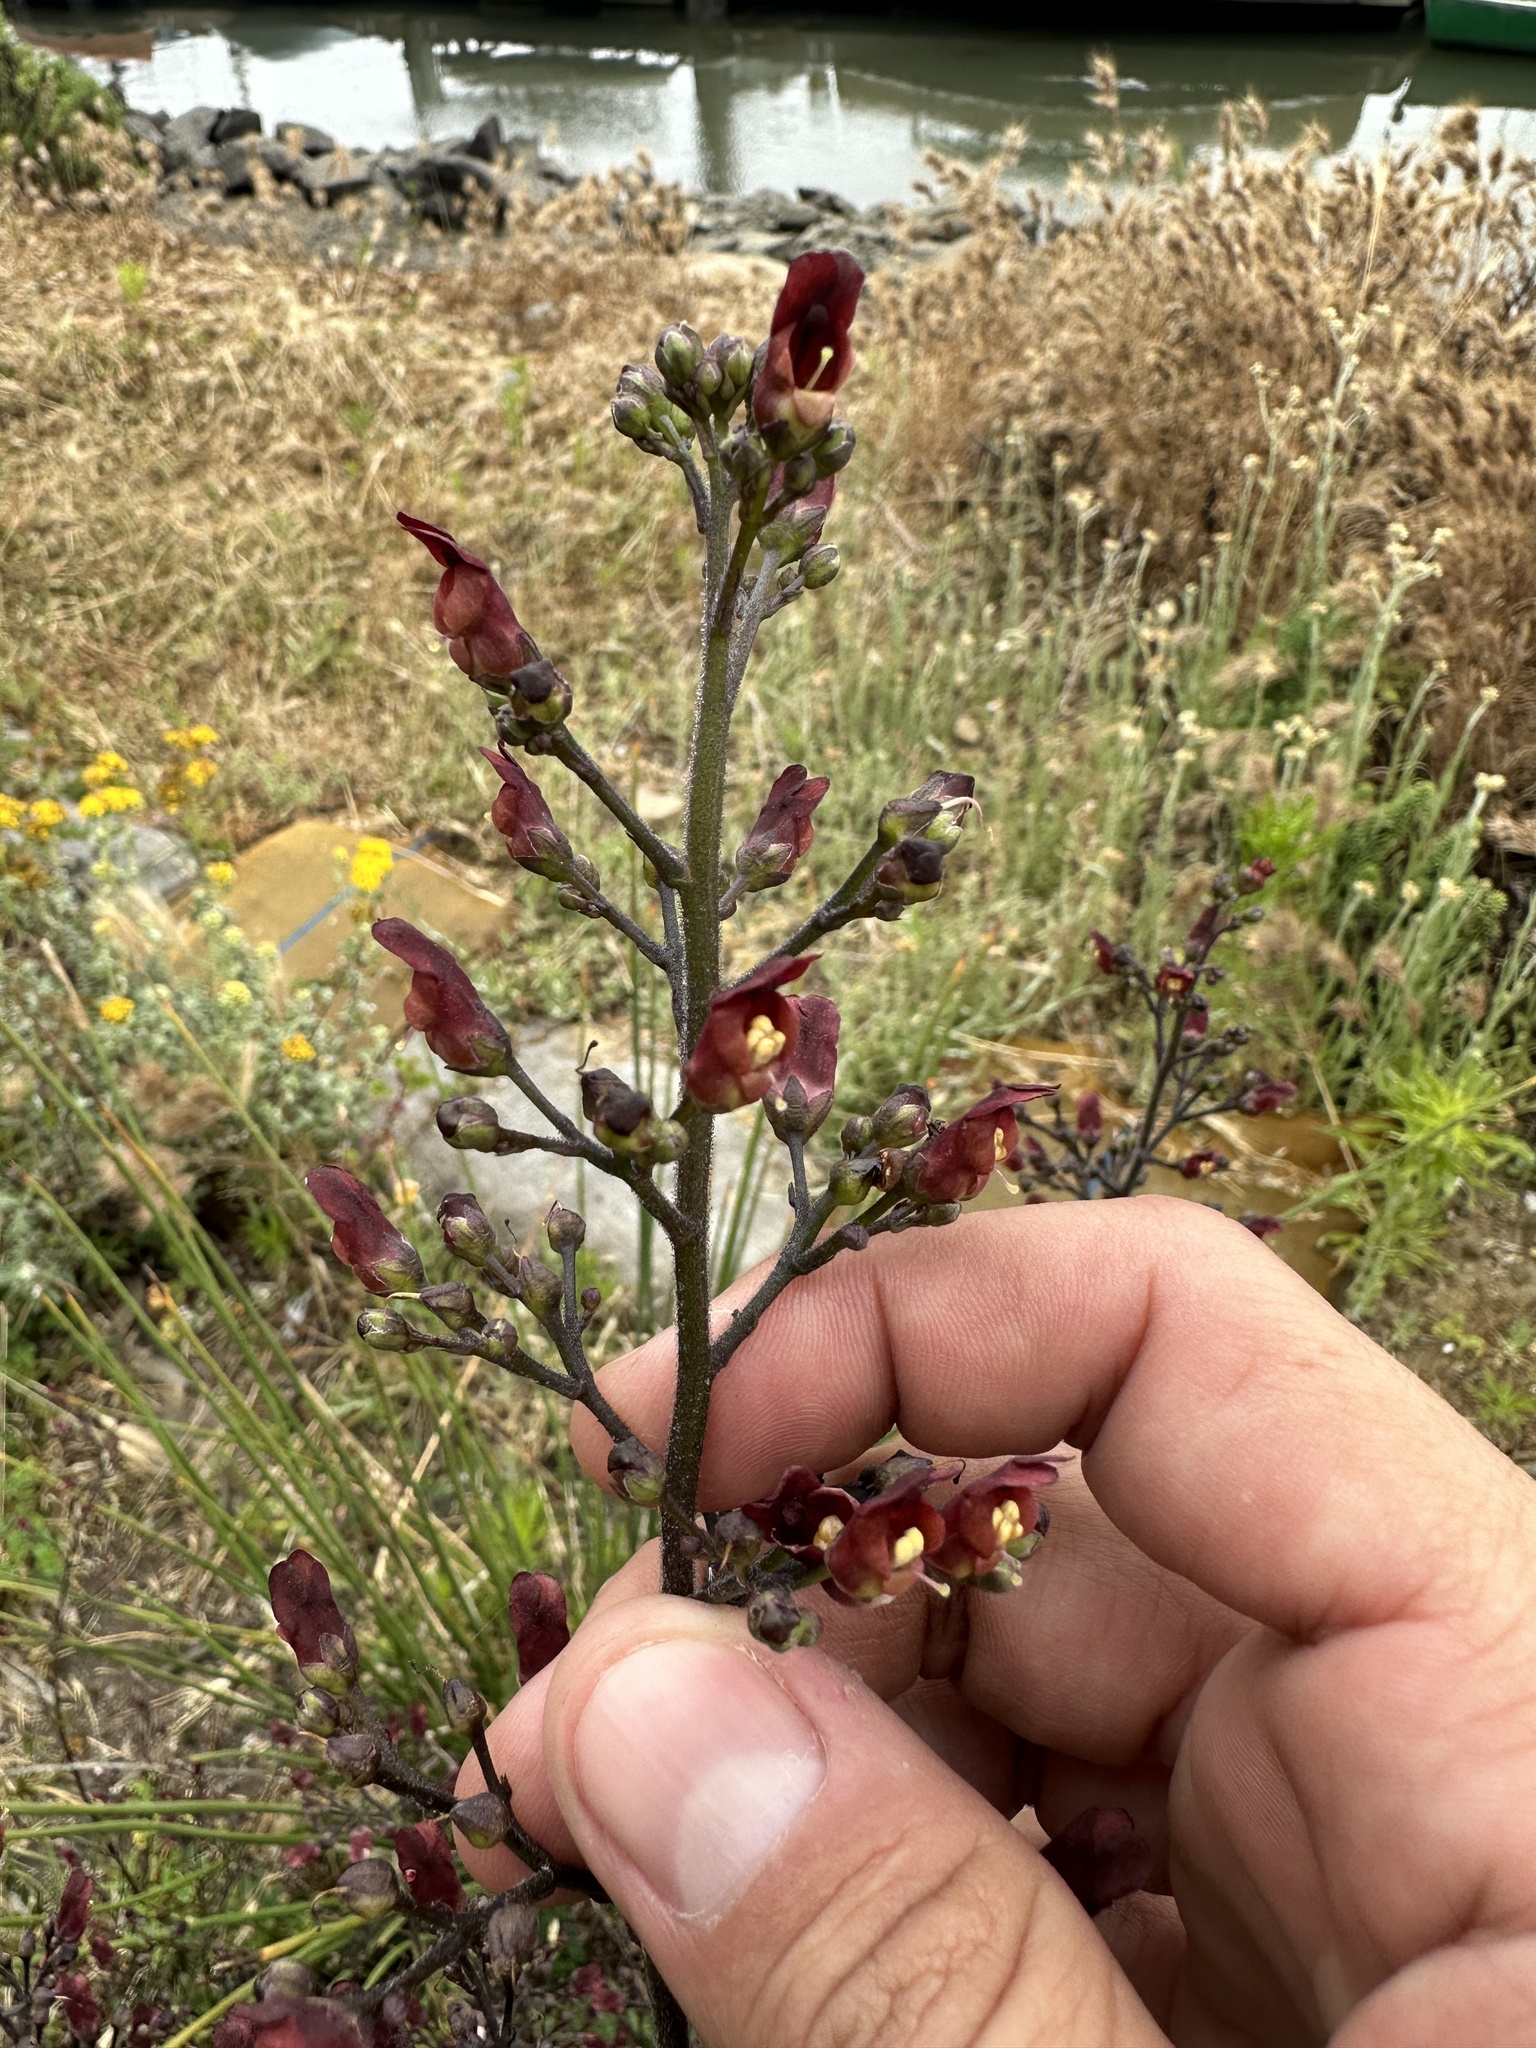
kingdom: Plantae
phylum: Tracheophyta
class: Magnoliopsida
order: Lamiales
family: Scrophulariaceae
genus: Scrophularia
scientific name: Scrophularia californica
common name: California figwort
